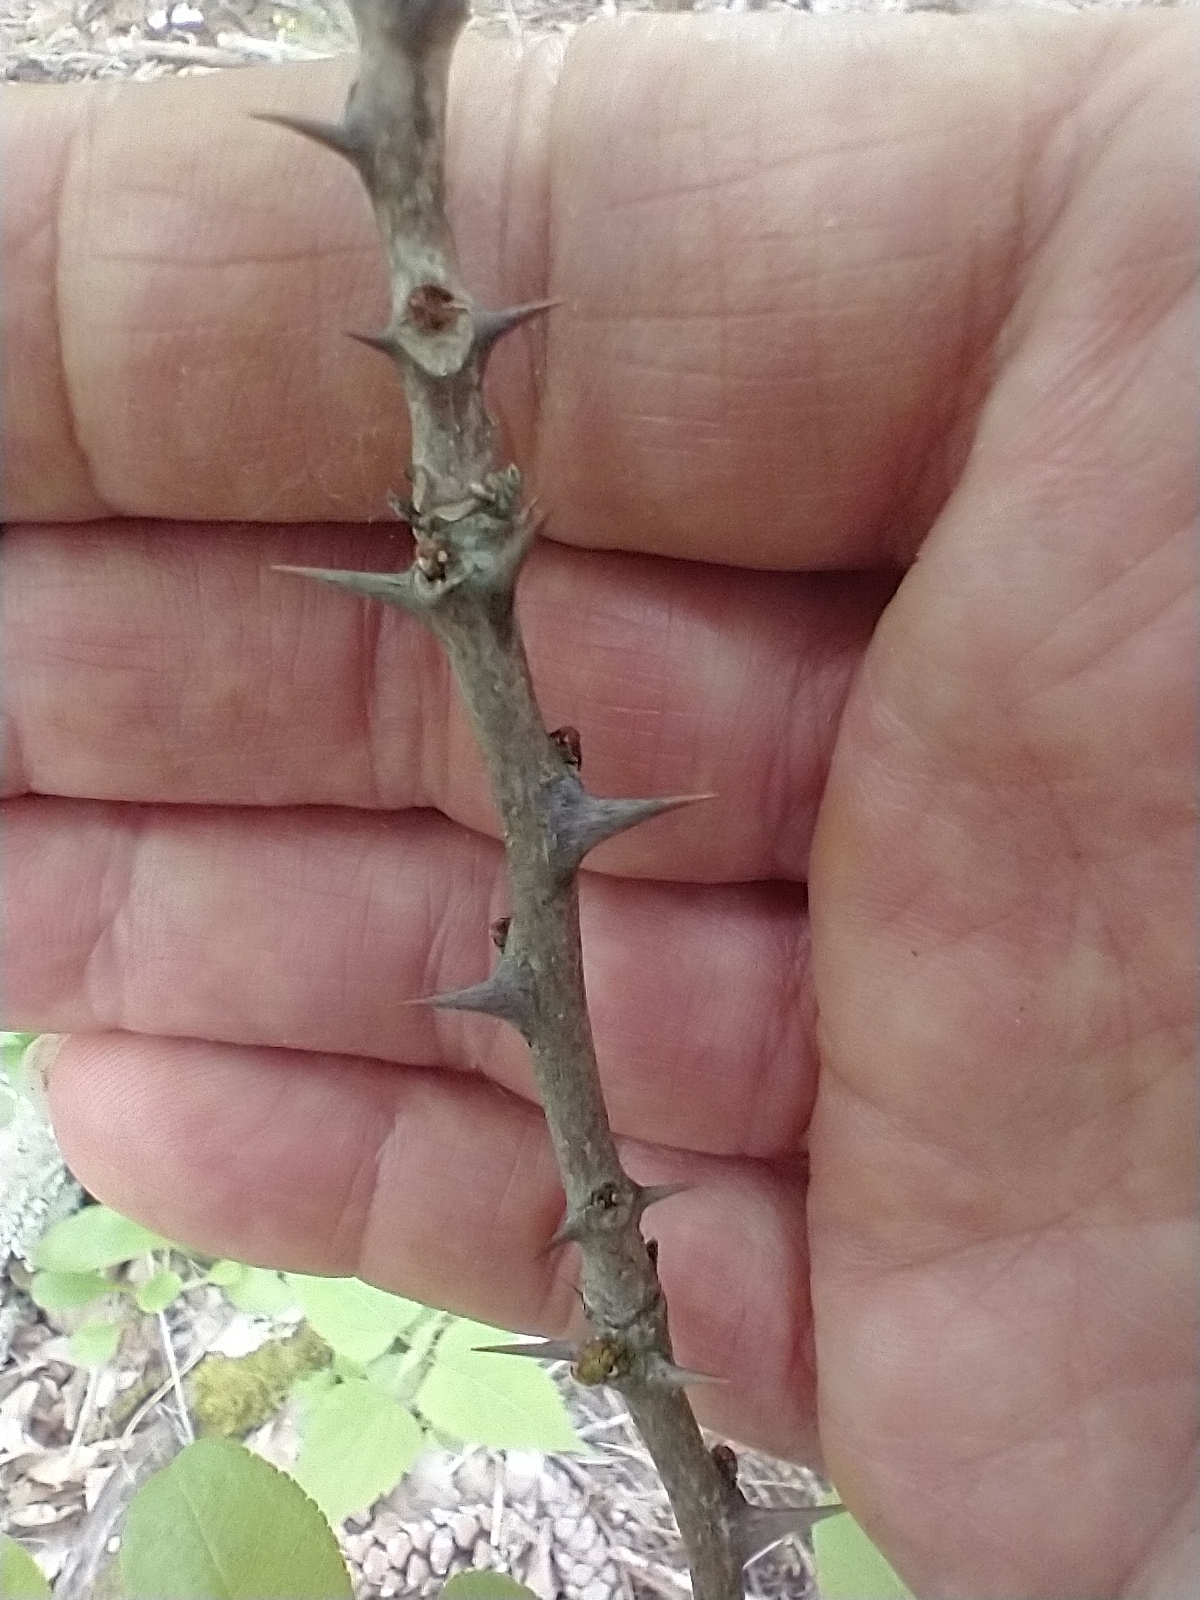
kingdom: Plantae
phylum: Tracheophyta
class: Magnoliopsida
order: Sapindales
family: Rutaceae
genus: Zanthoxylum
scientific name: Zanthoxylum americanum
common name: Northern prickly-ash
